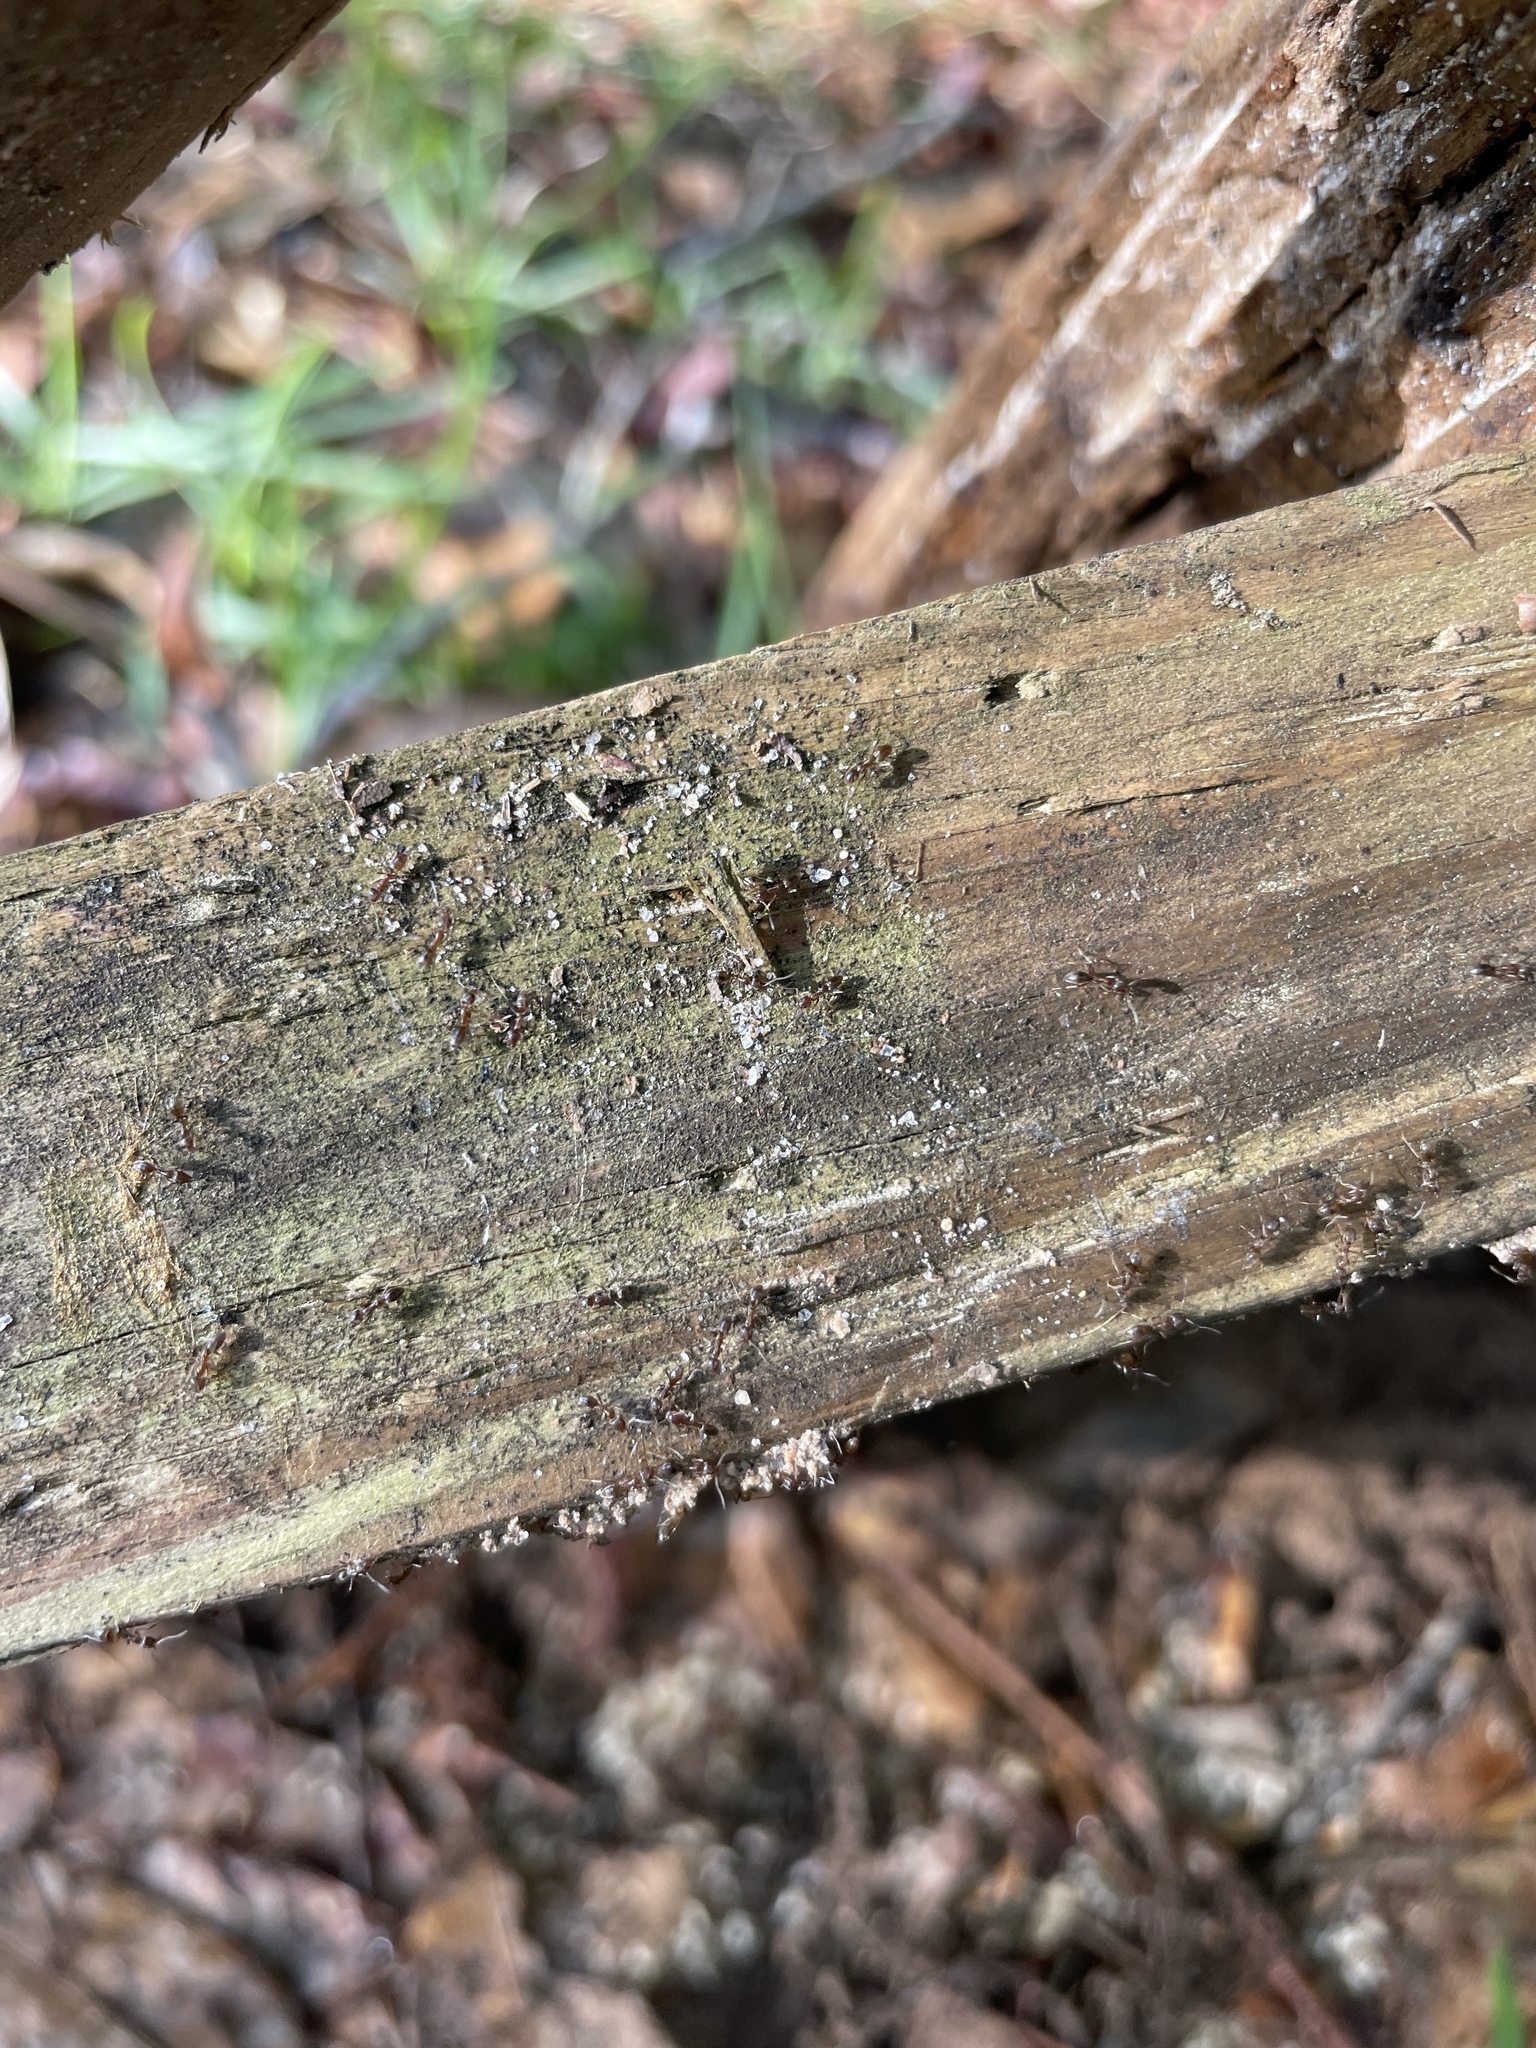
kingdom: Animalia
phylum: Arthropoda
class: Insecta
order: Hymenoptera
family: Formicidae
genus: Linepithema
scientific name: Linepithema humile
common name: Argentine ant
